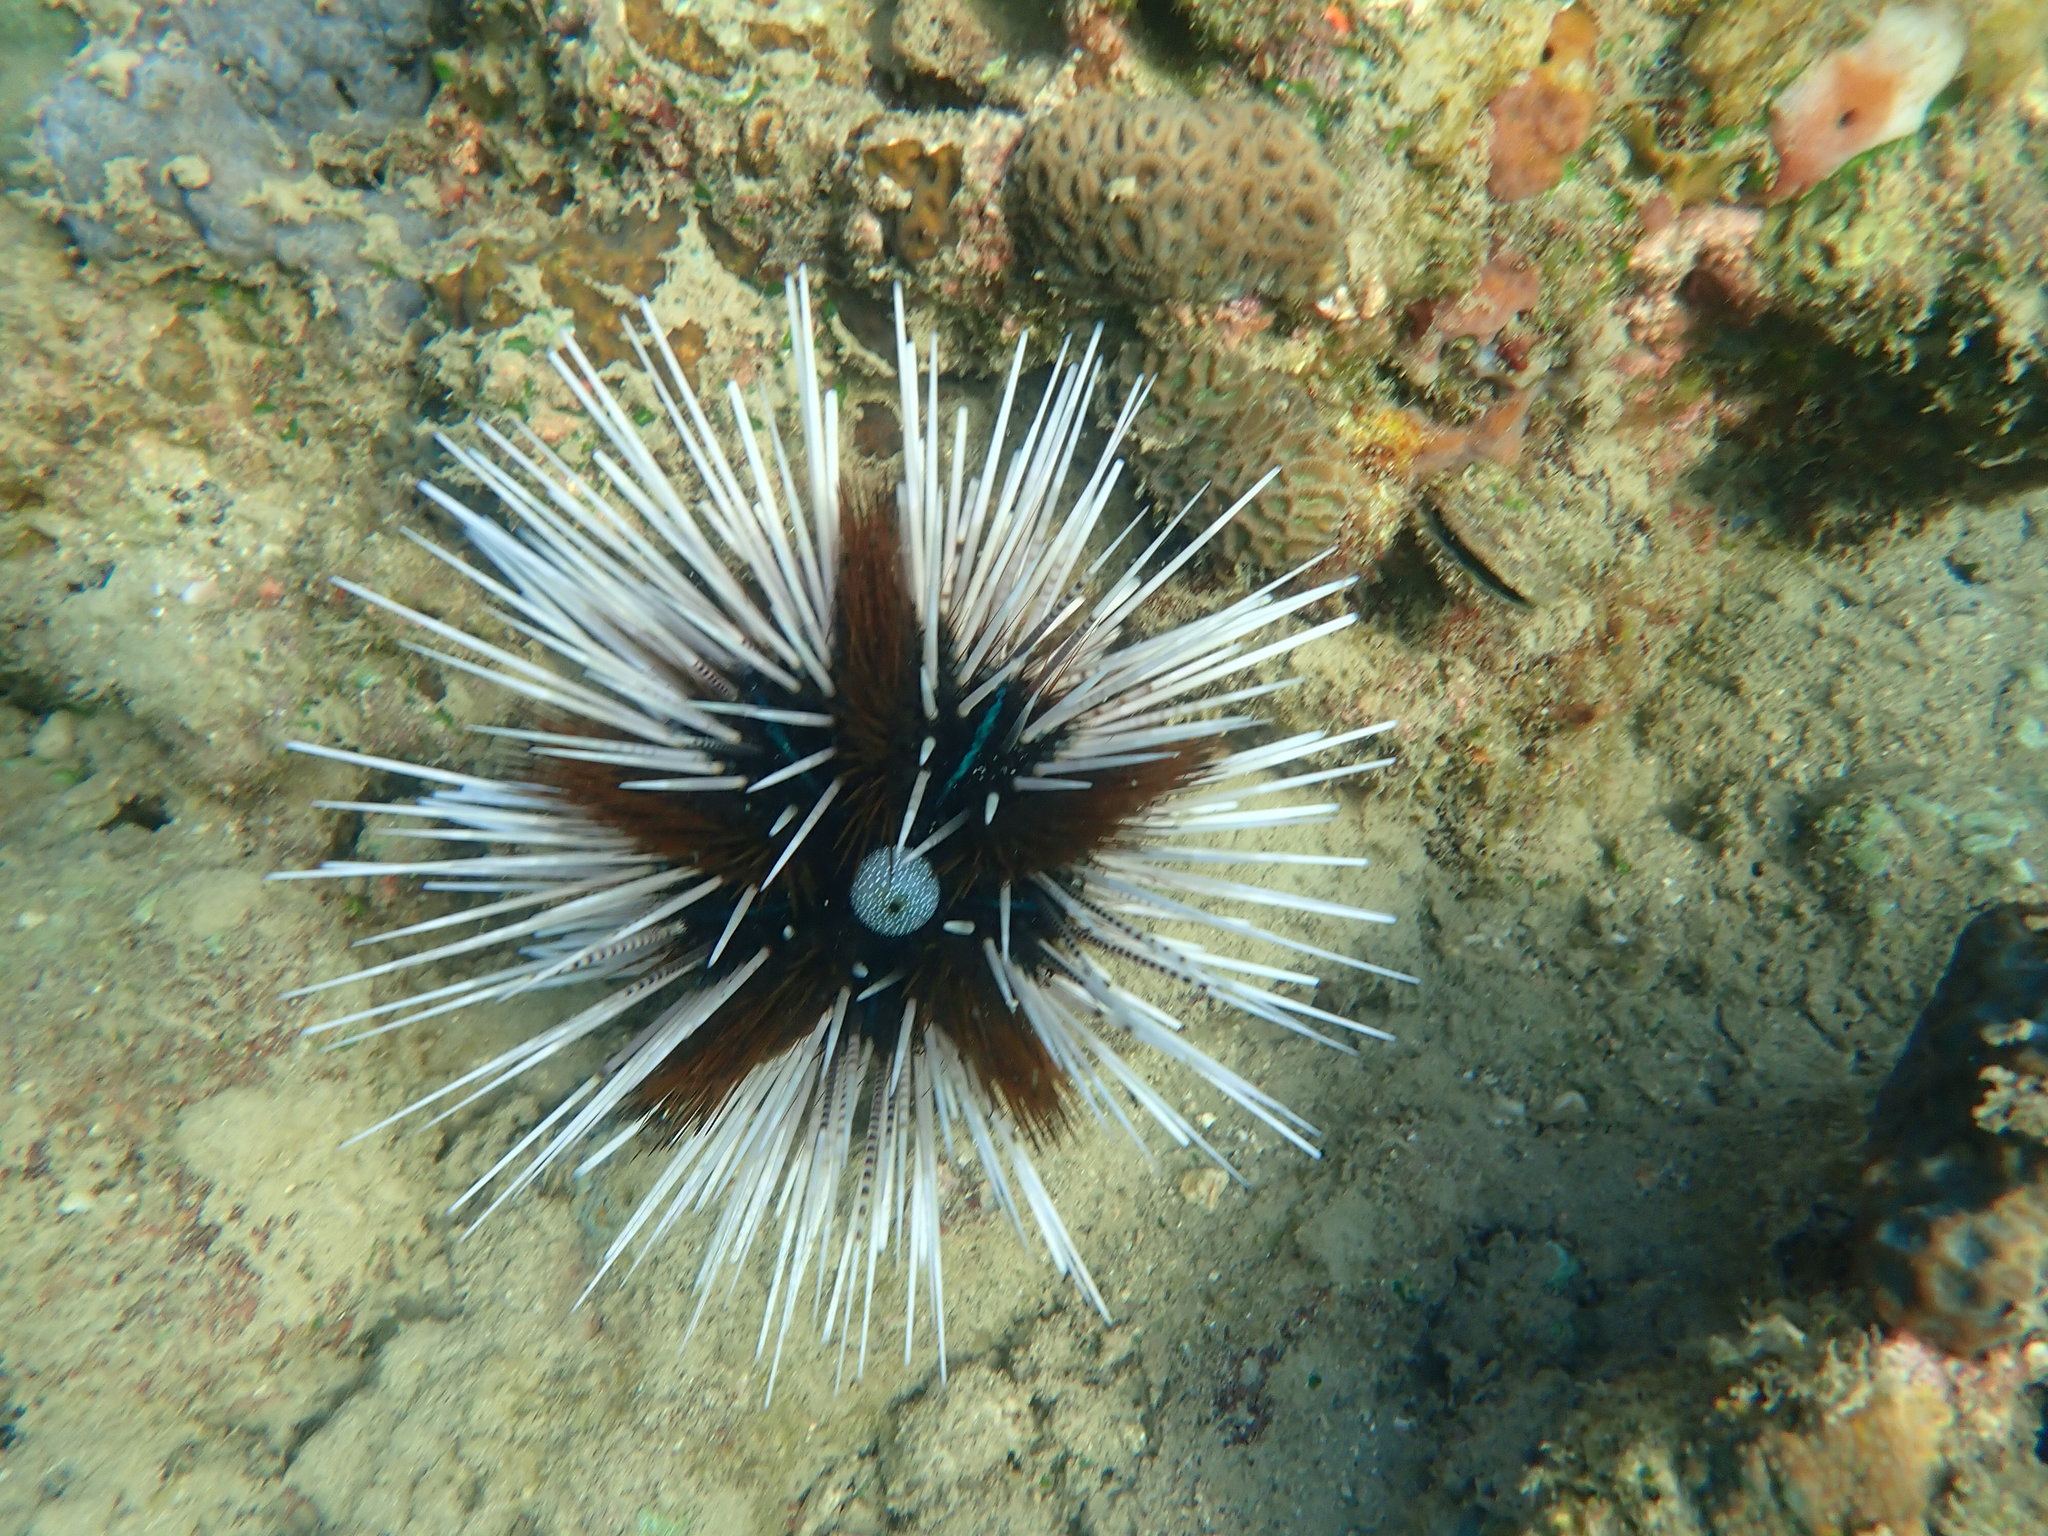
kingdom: Animalia
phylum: Echinodermata
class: Echinoidea
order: Diadematoida
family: Diadematidae
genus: Echinothrix
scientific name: Echinothrix calamaris
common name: Banded sea urchin
